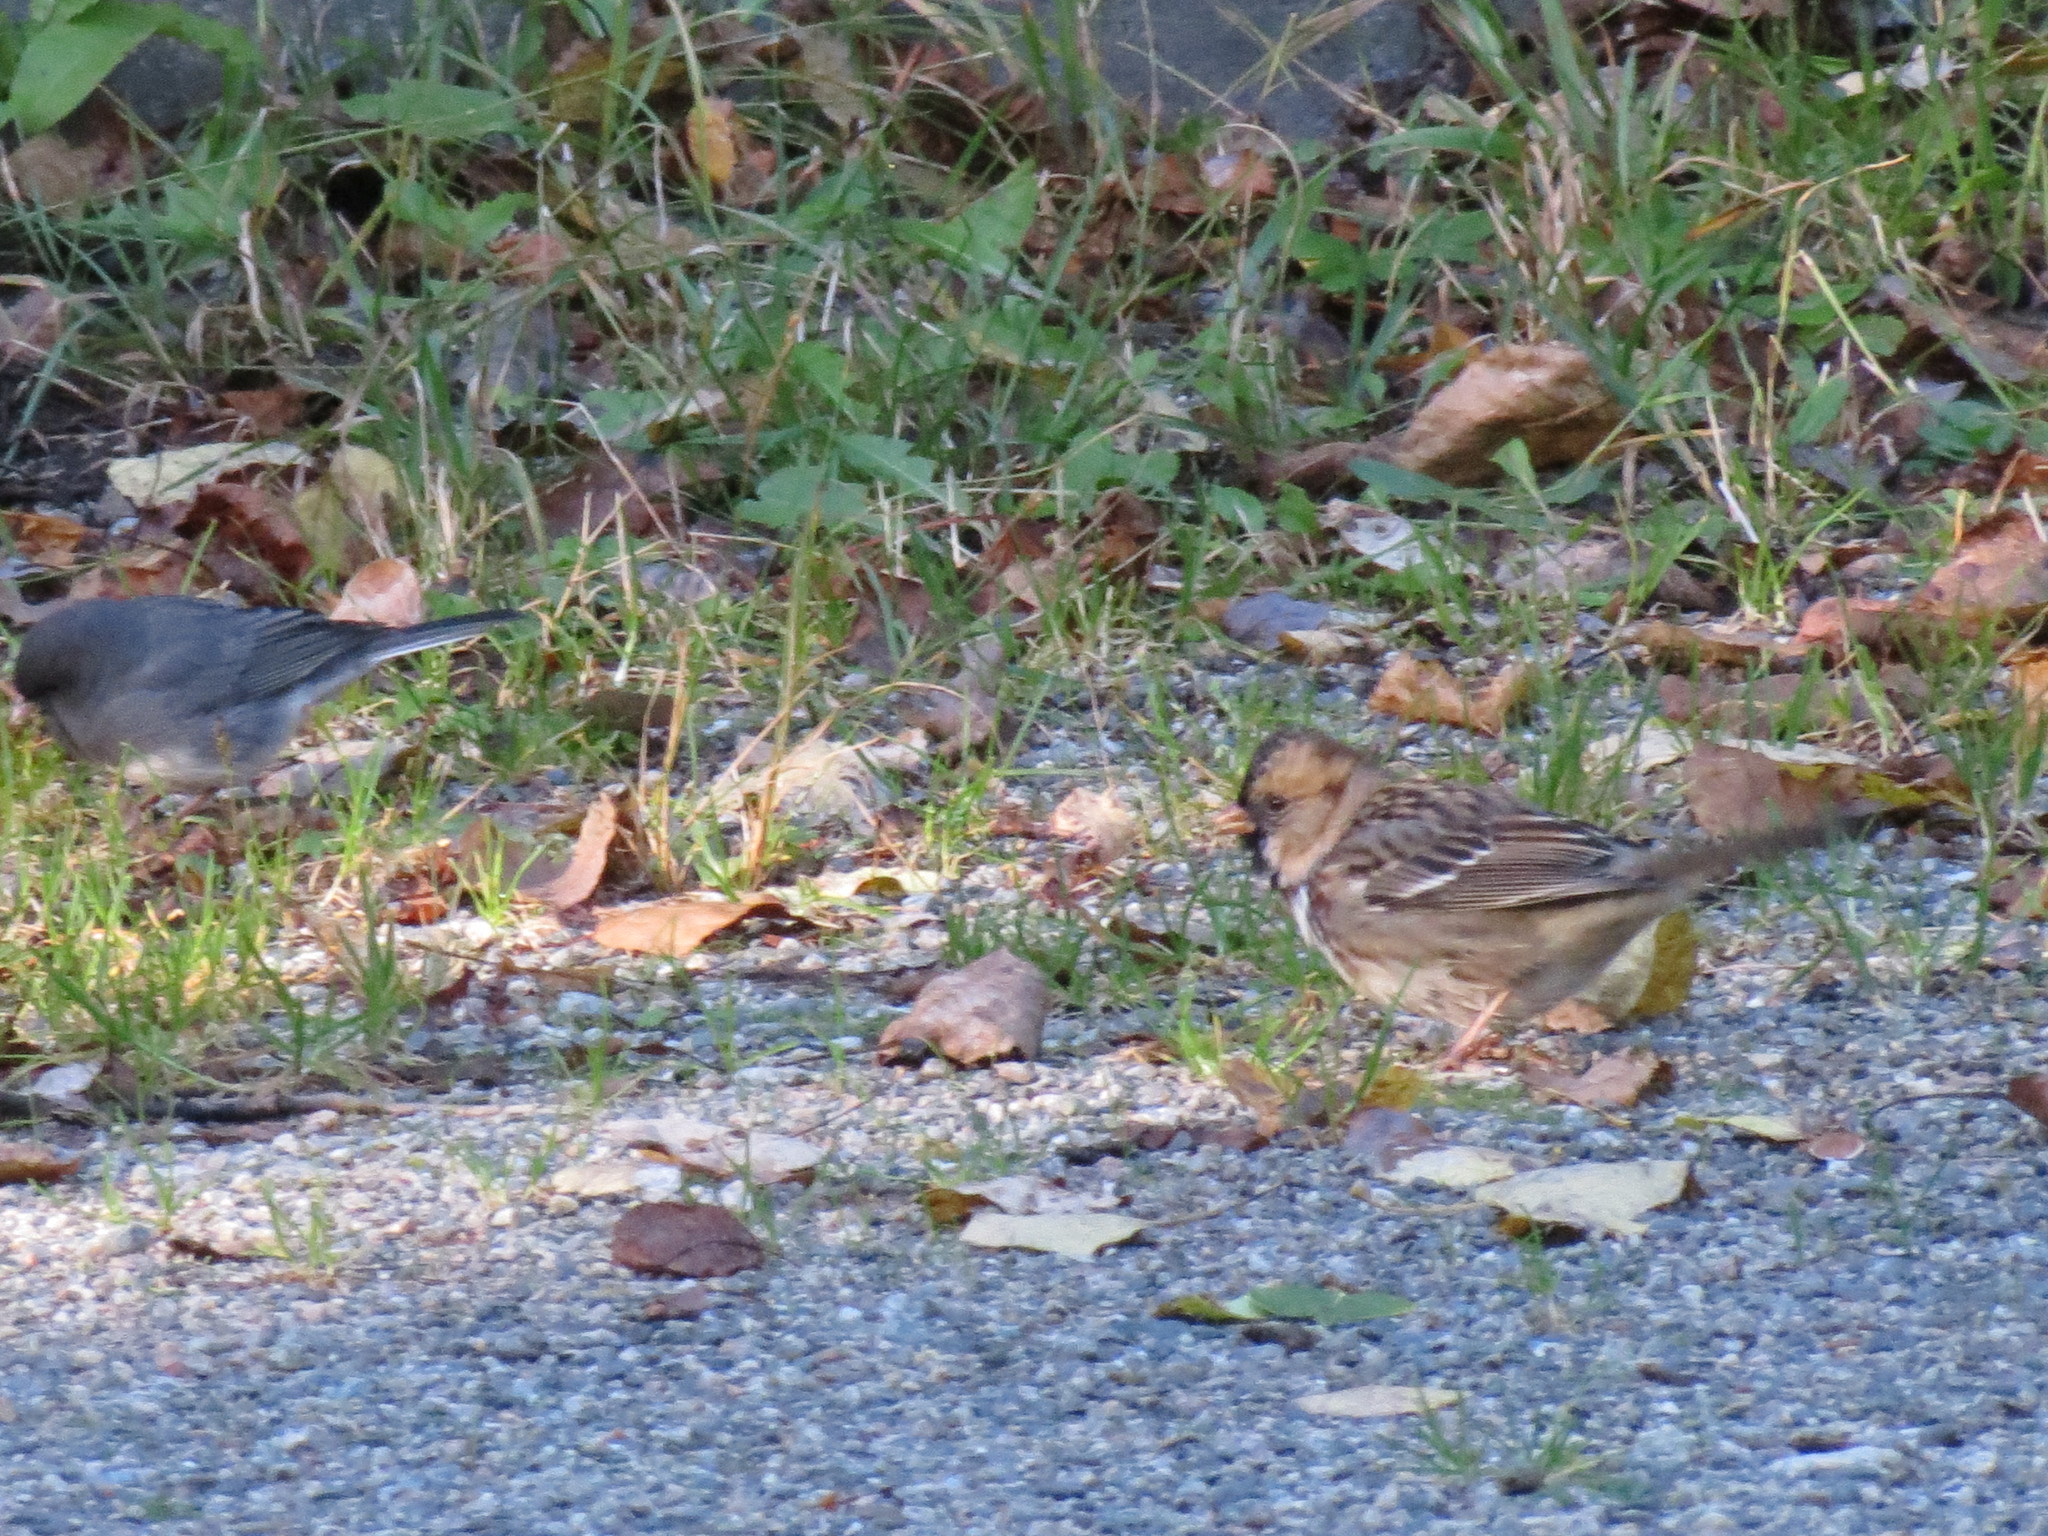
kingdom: Animalia
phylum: Chordata
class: Aves
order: Passeriformes
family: Passerellidae
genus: Junco
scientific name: Junco hyemalis
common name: Dark-eyed junco
